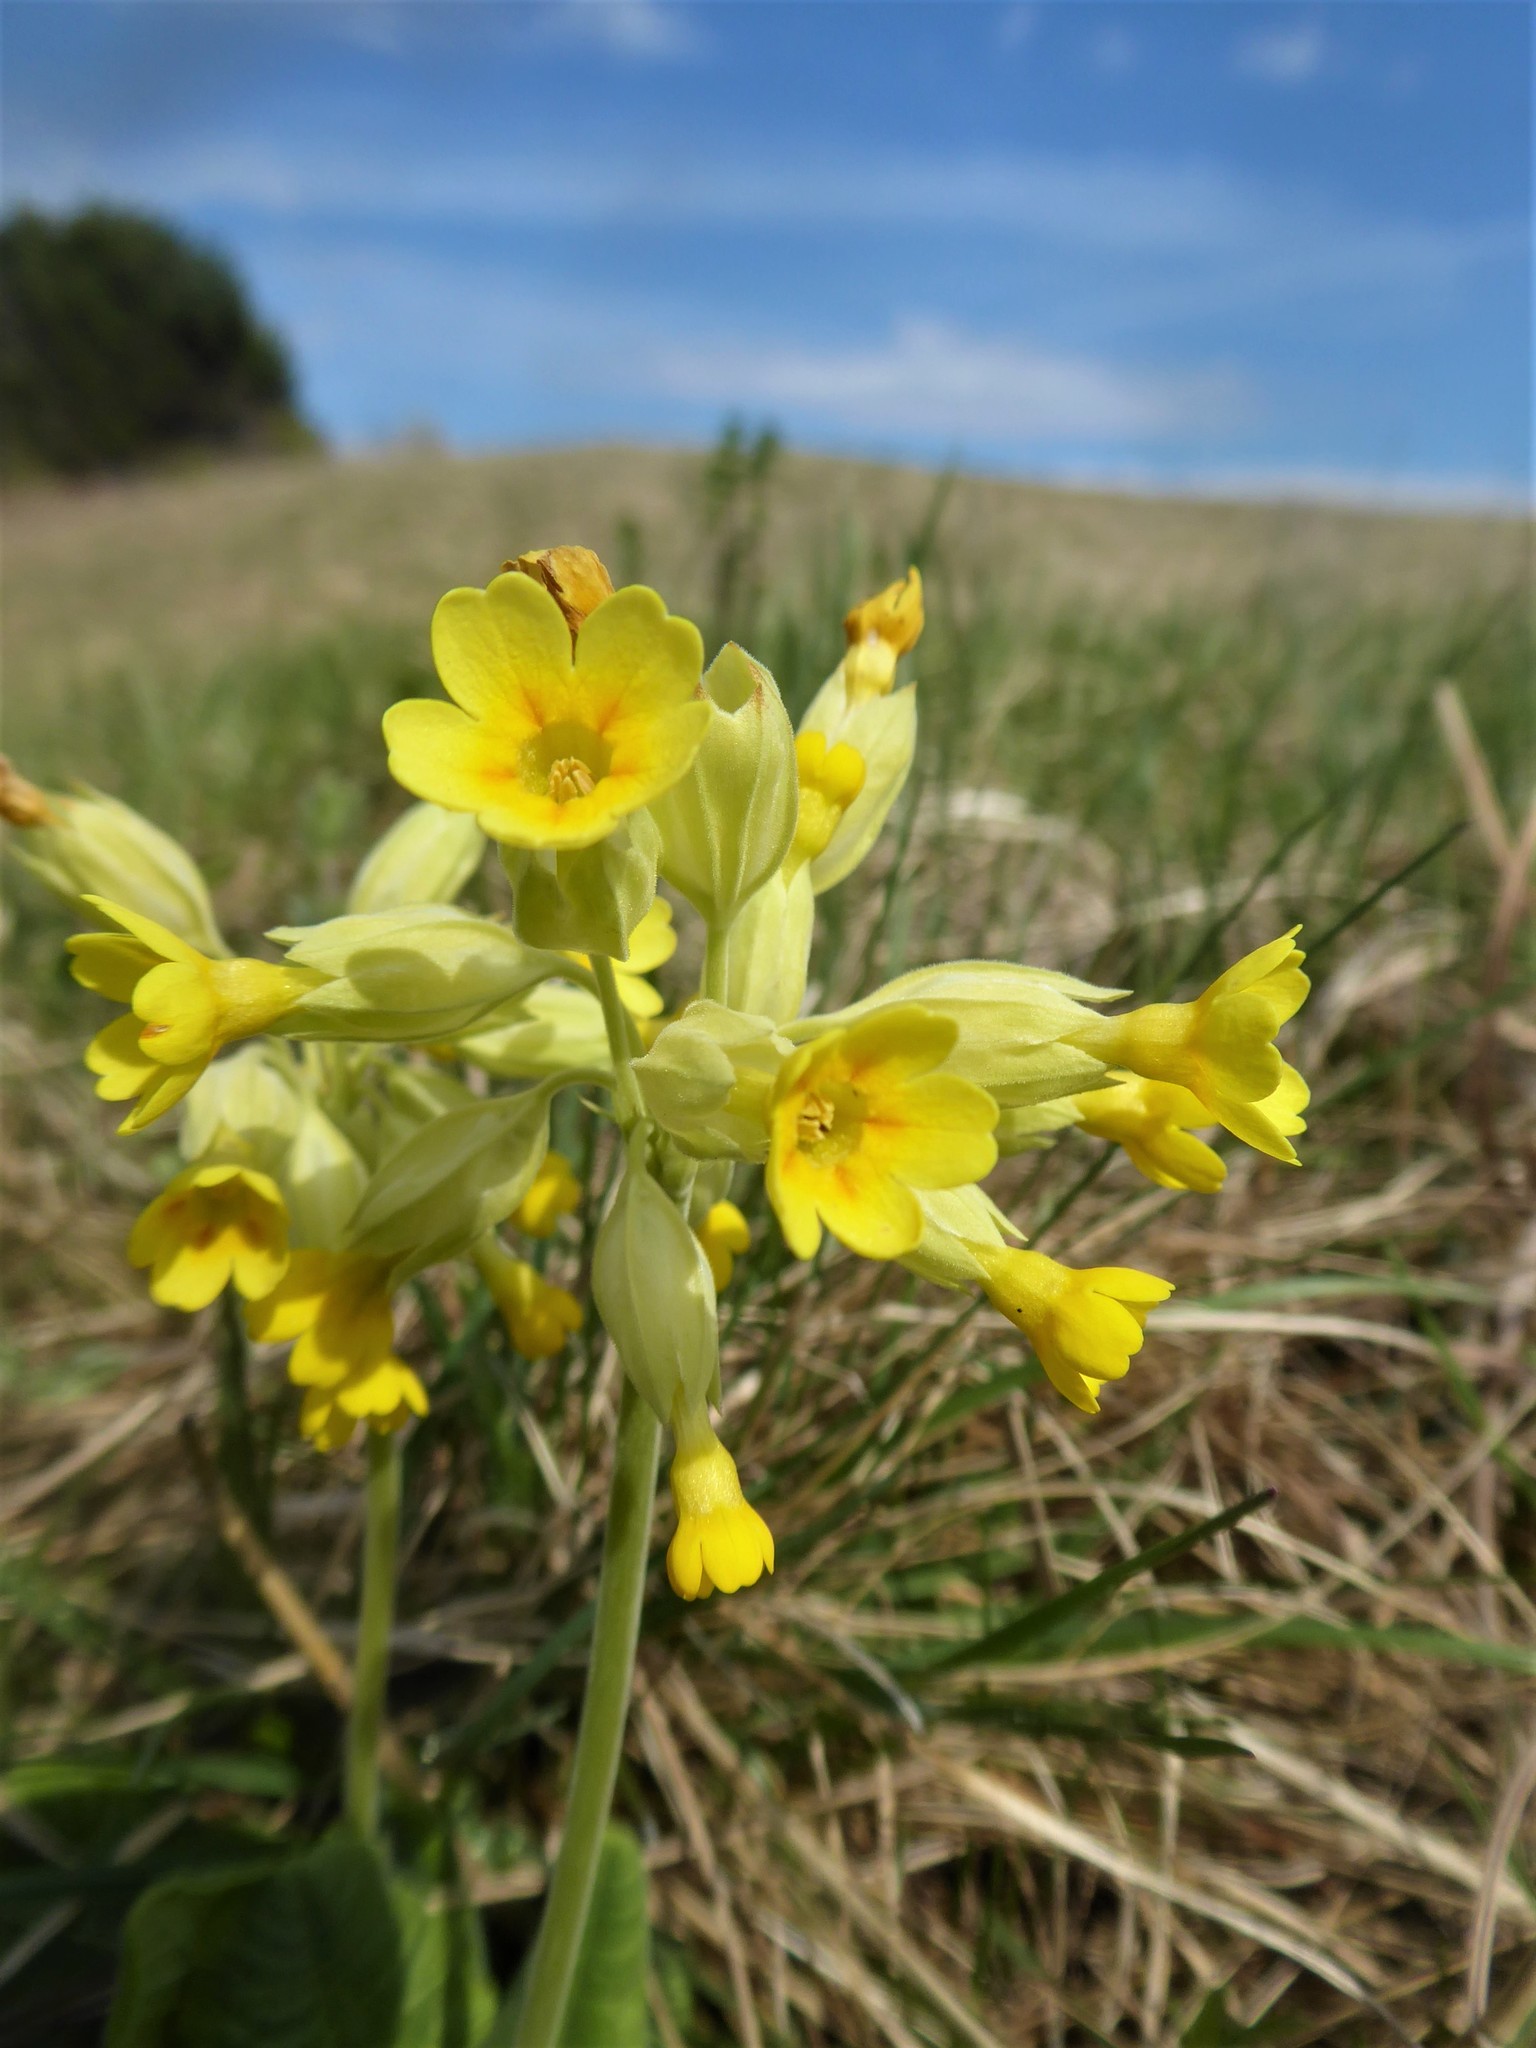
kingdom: Plantae
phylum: Tracheophyta
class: Magnoliopsida
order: Ericales
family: Primulaceae
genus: Primula
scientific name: Primula veris
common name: Cowslip
